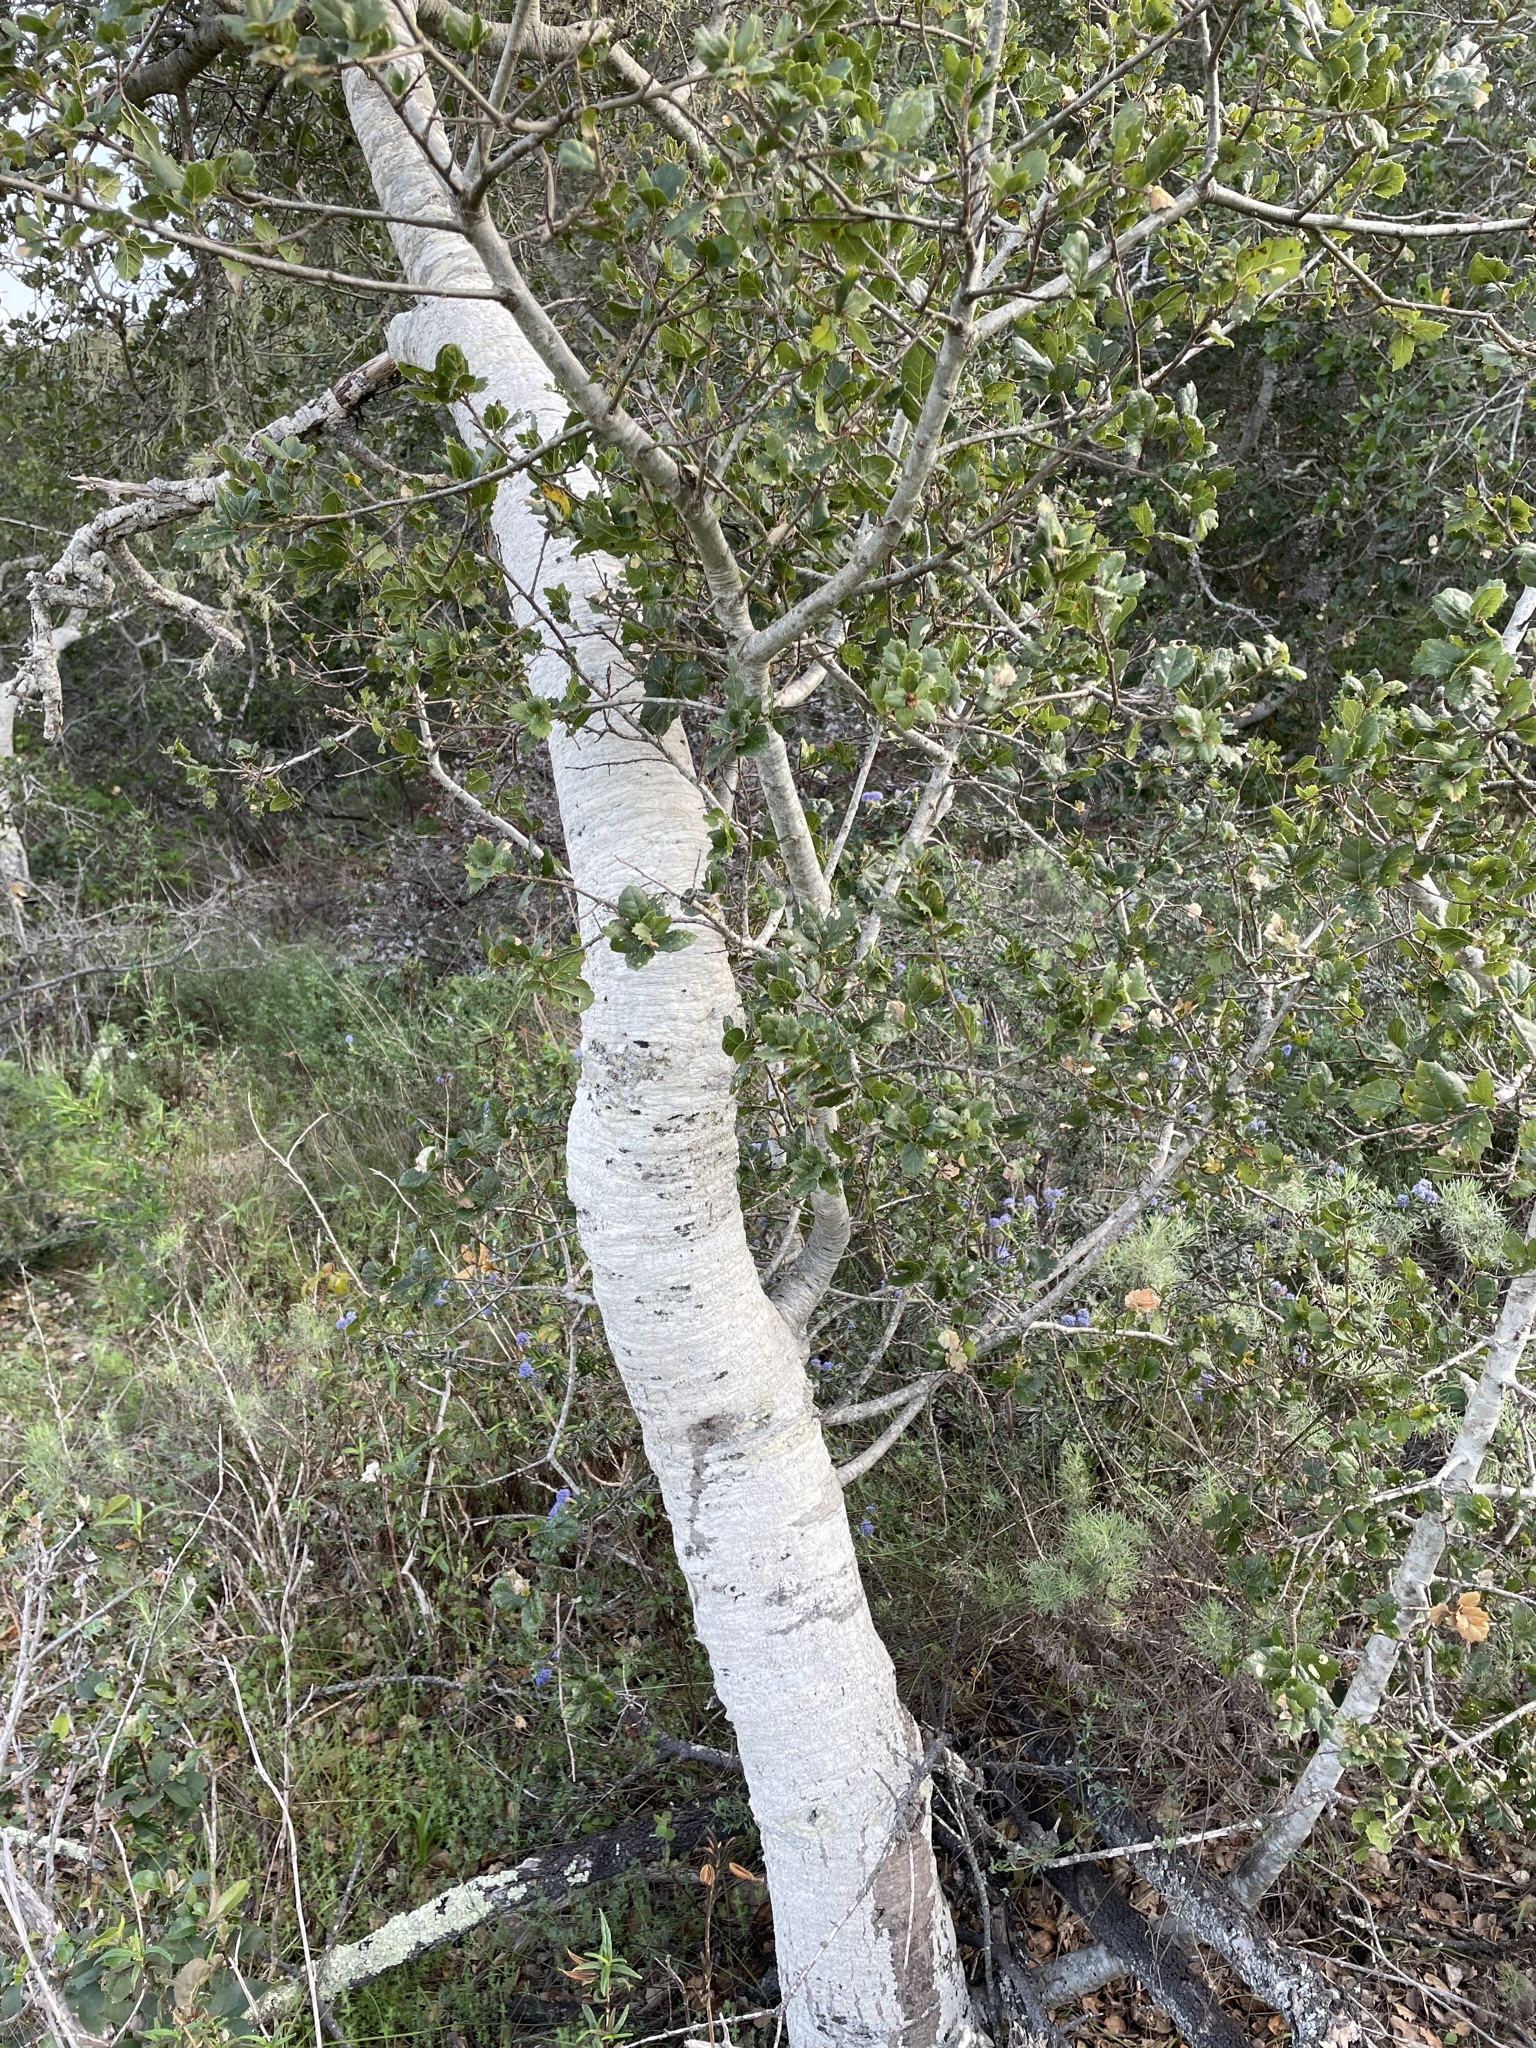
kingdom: Plantae
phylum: Tracheophyta
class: Magnoliopsida
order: Fagales
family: Fagaceae
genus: Quercus
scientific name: Quercus agrifolia
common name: California live oak
